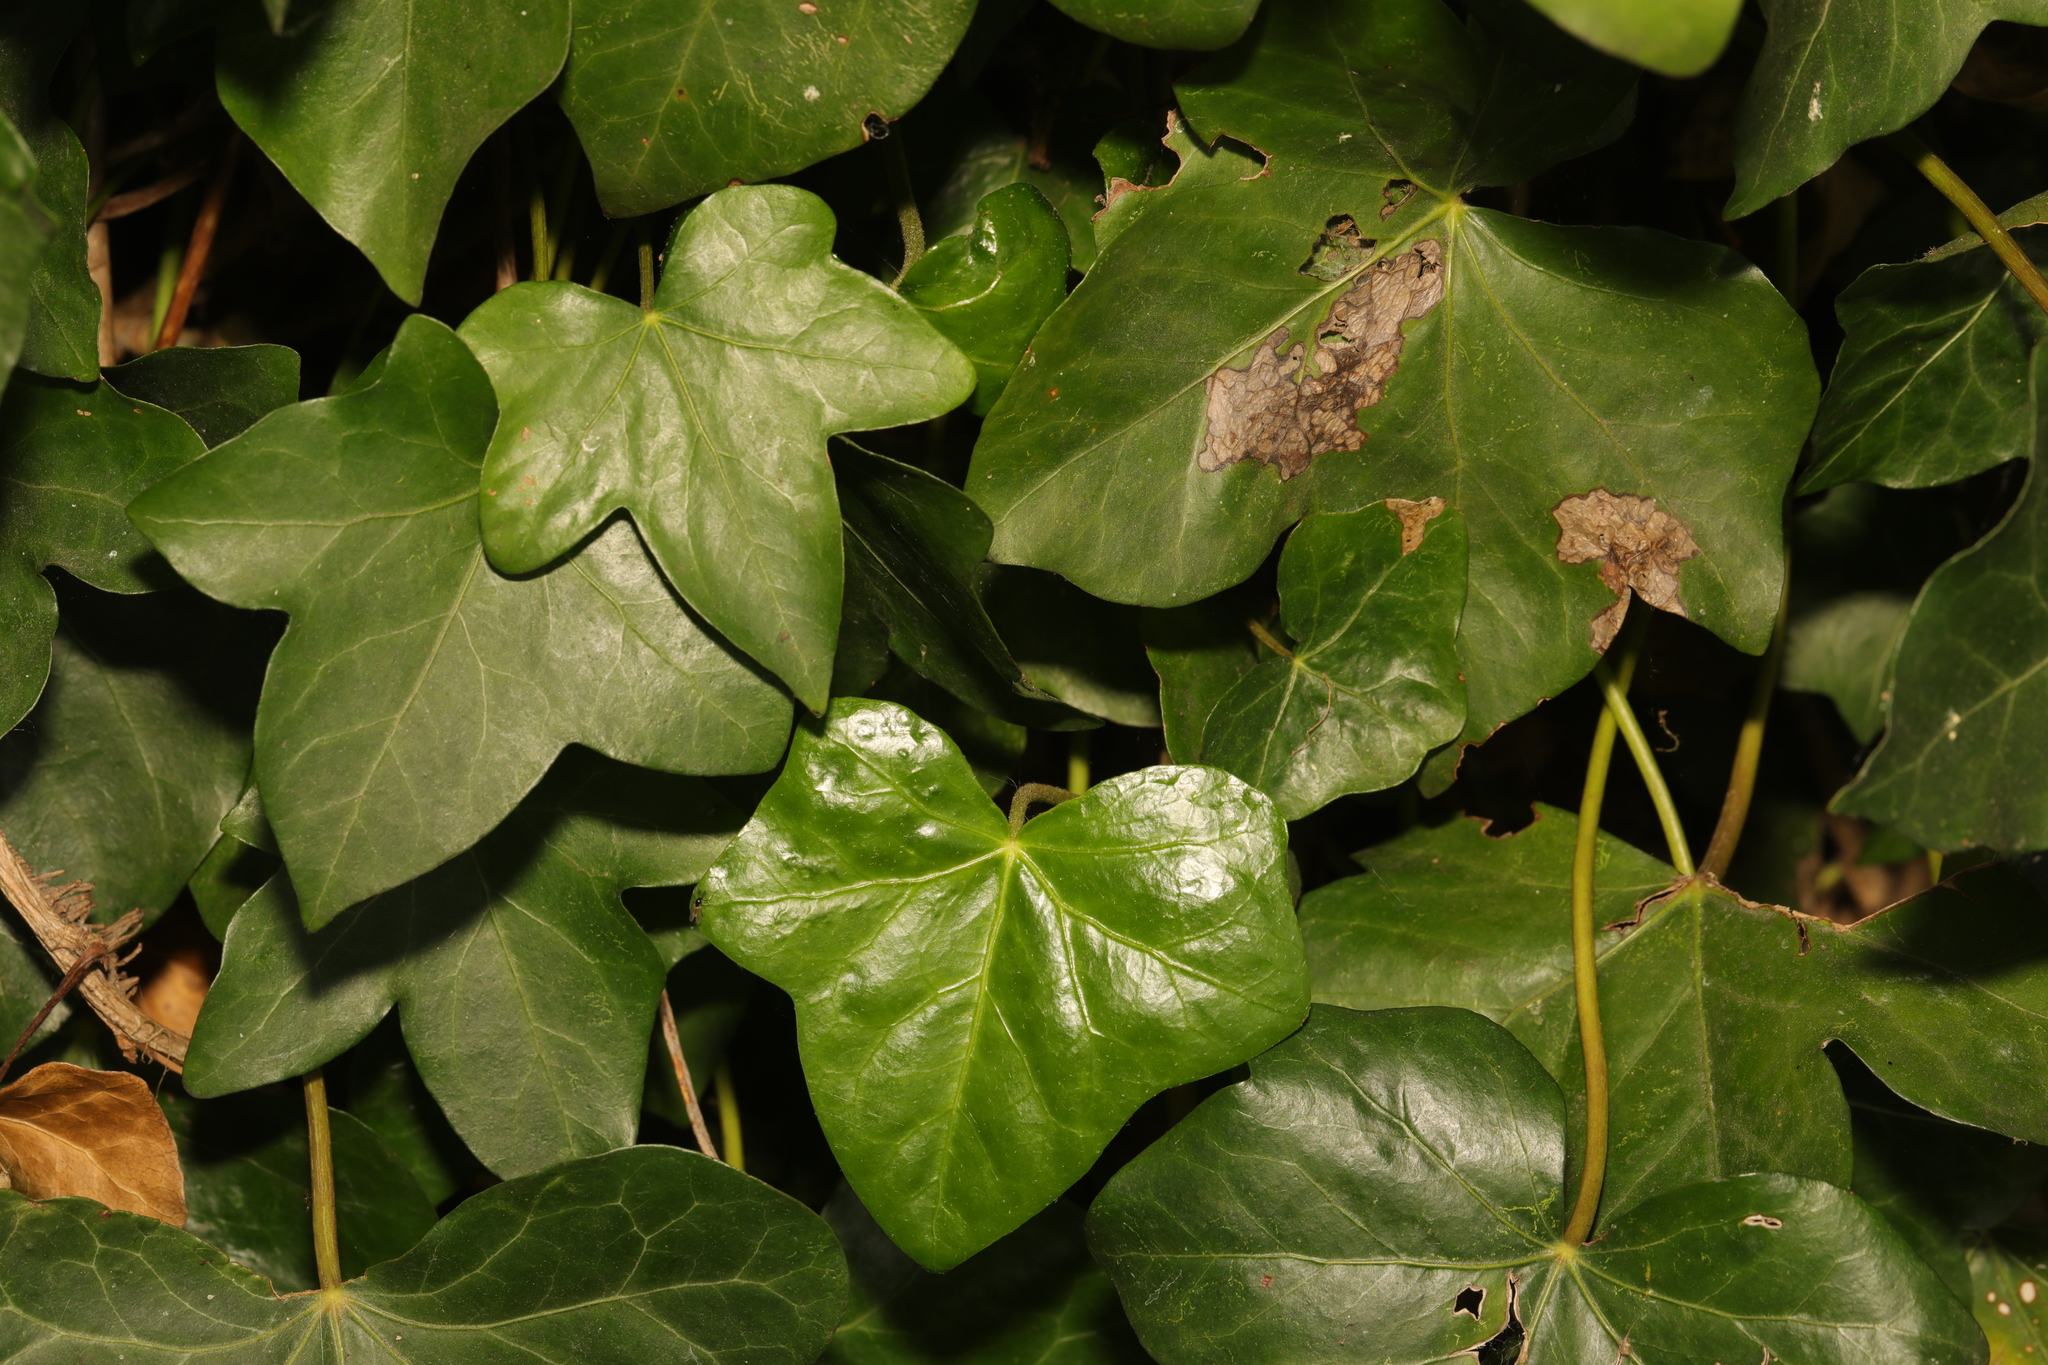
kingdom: Plantae
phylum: Tracheophyta
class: Magnoliopsida
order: Apiales
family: Araliaceae
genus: Hedera
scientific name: Hedera helix
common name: Ivy
